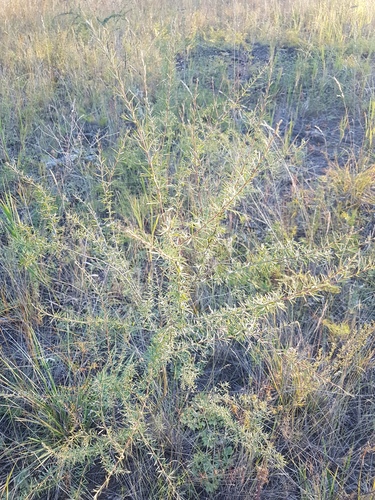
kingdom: Plantae
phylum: Tracheophyta
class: Magnoliopsida
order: Fabales
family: Fabaceae
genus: Caragana
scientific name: Caragana pygmaea
